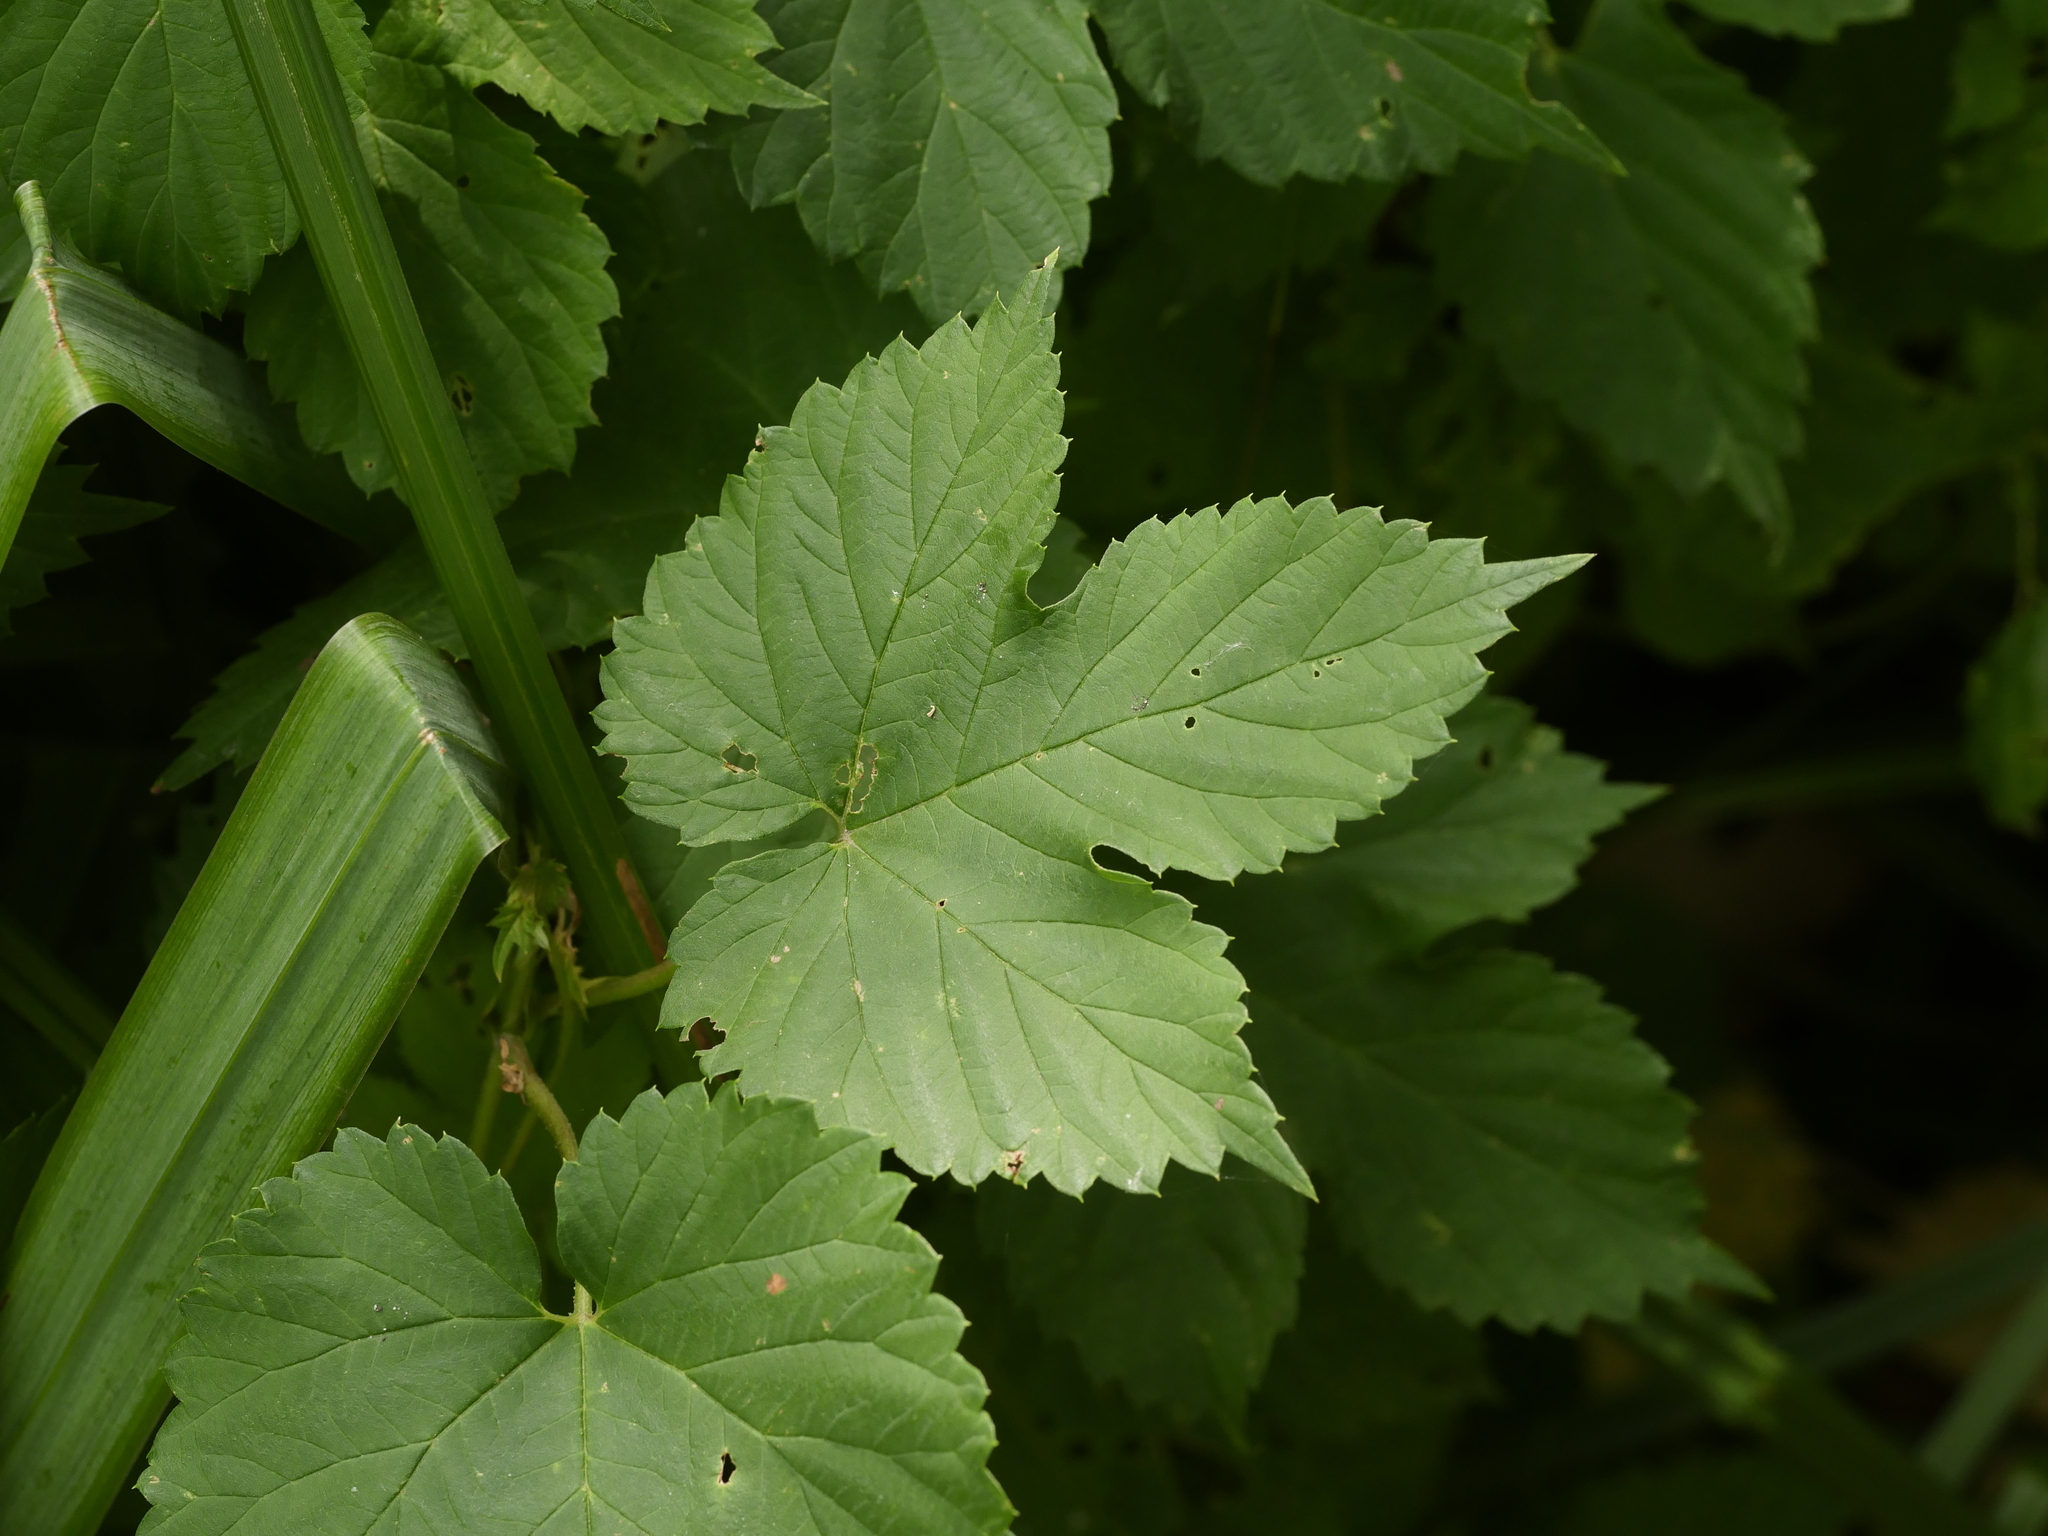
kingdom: Plantae
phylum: Tracheophyta
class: Magnoliopsida
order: Rosales
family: Cannabaceae
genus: Humulus
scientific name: Humulus lupulus
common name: Hop
